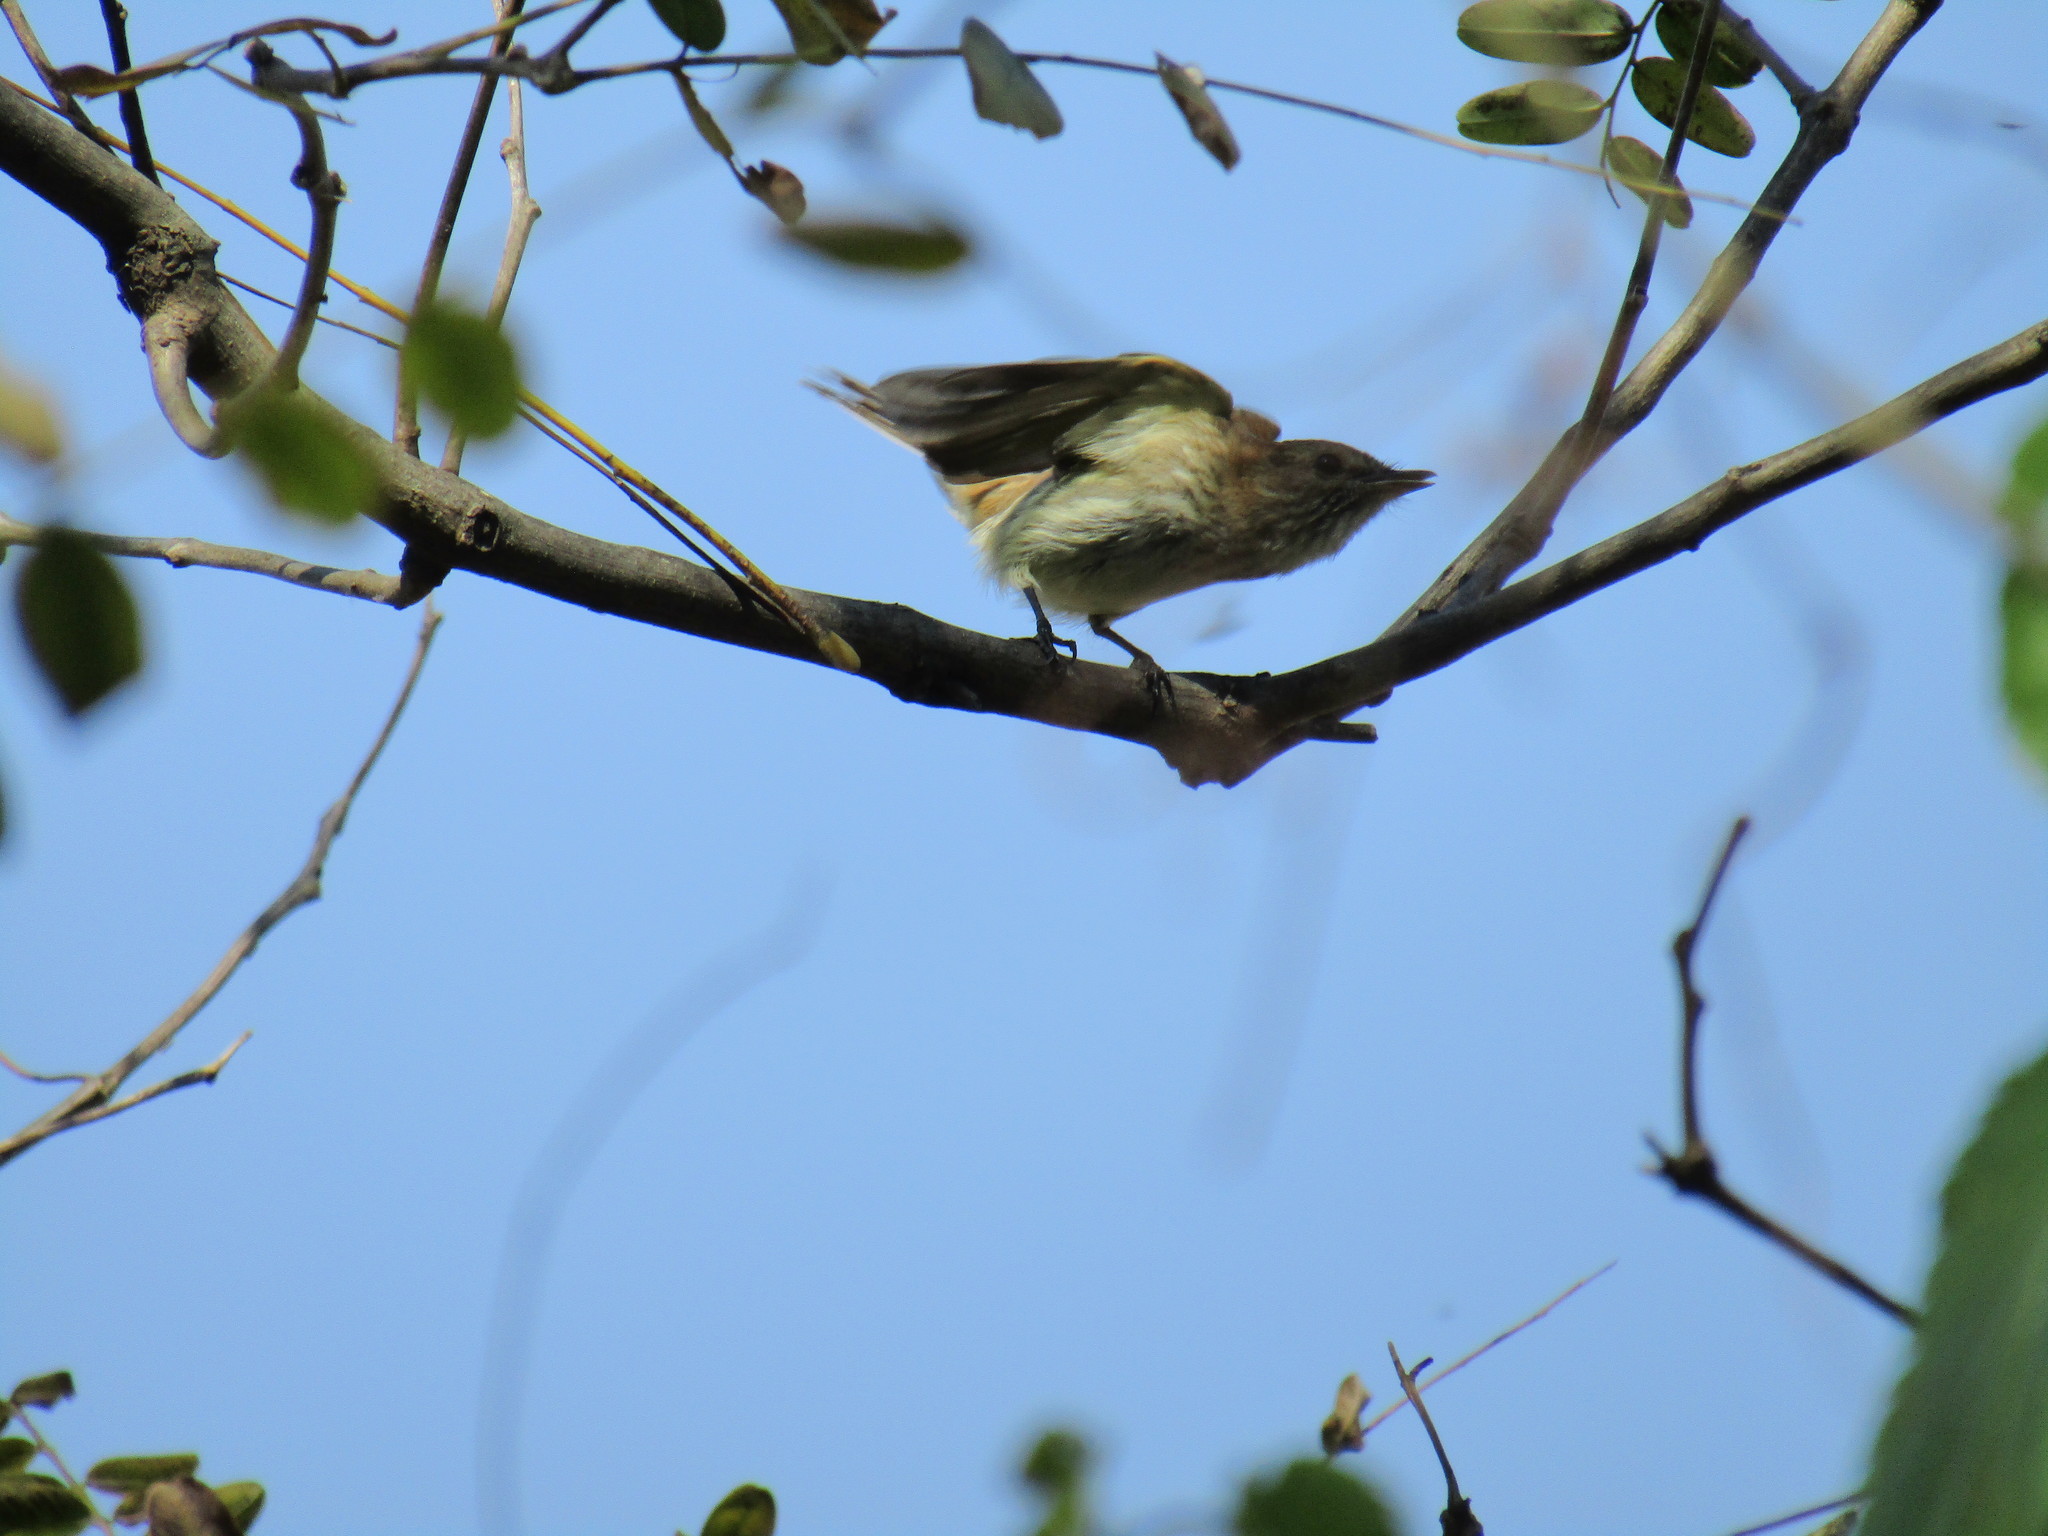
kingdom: Animalia
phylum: Chordata
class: Aves
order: Passeriformes
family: Tyrannidae
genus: Pyrocephalus
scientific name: Pyrocephalus rubinus
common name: Vermilion flycatcher
